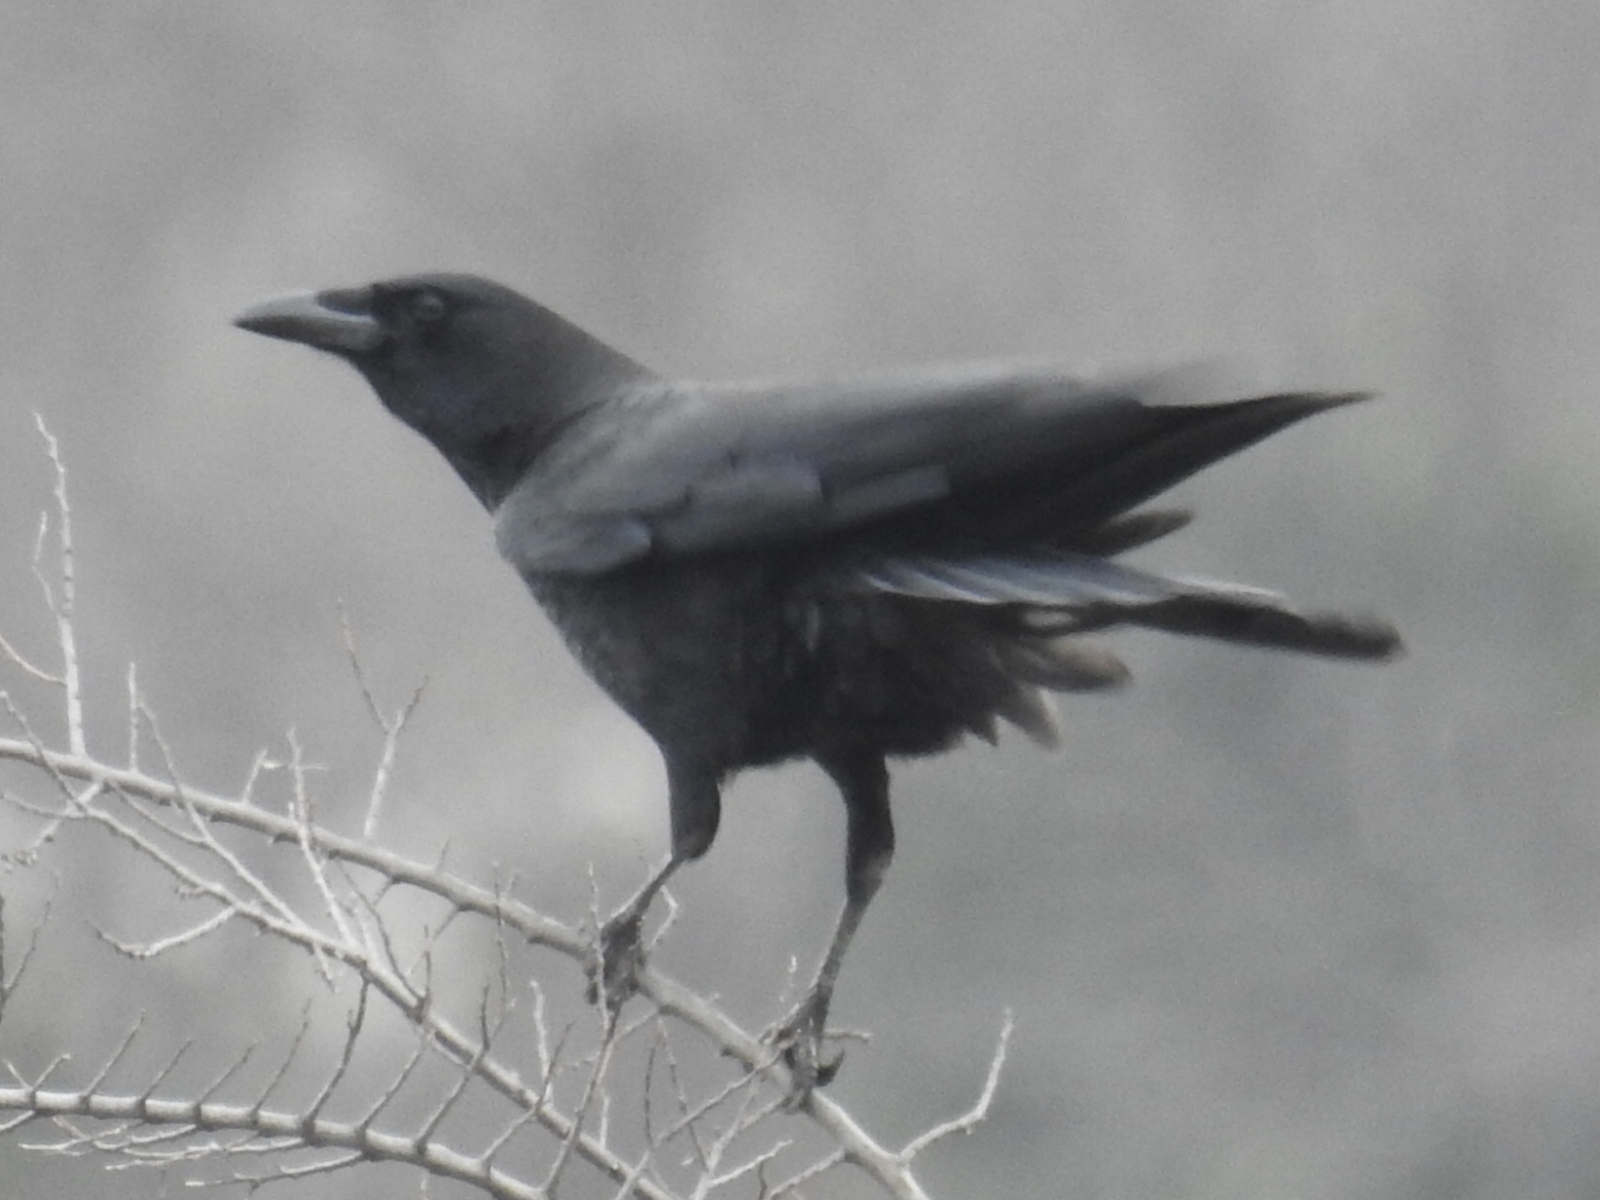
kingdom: Animalia
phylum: Chordata
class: Aves
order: Passeriformes
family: Corvidae
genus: Corvus
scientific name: Corvus brachyrhynchos
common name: American crow
